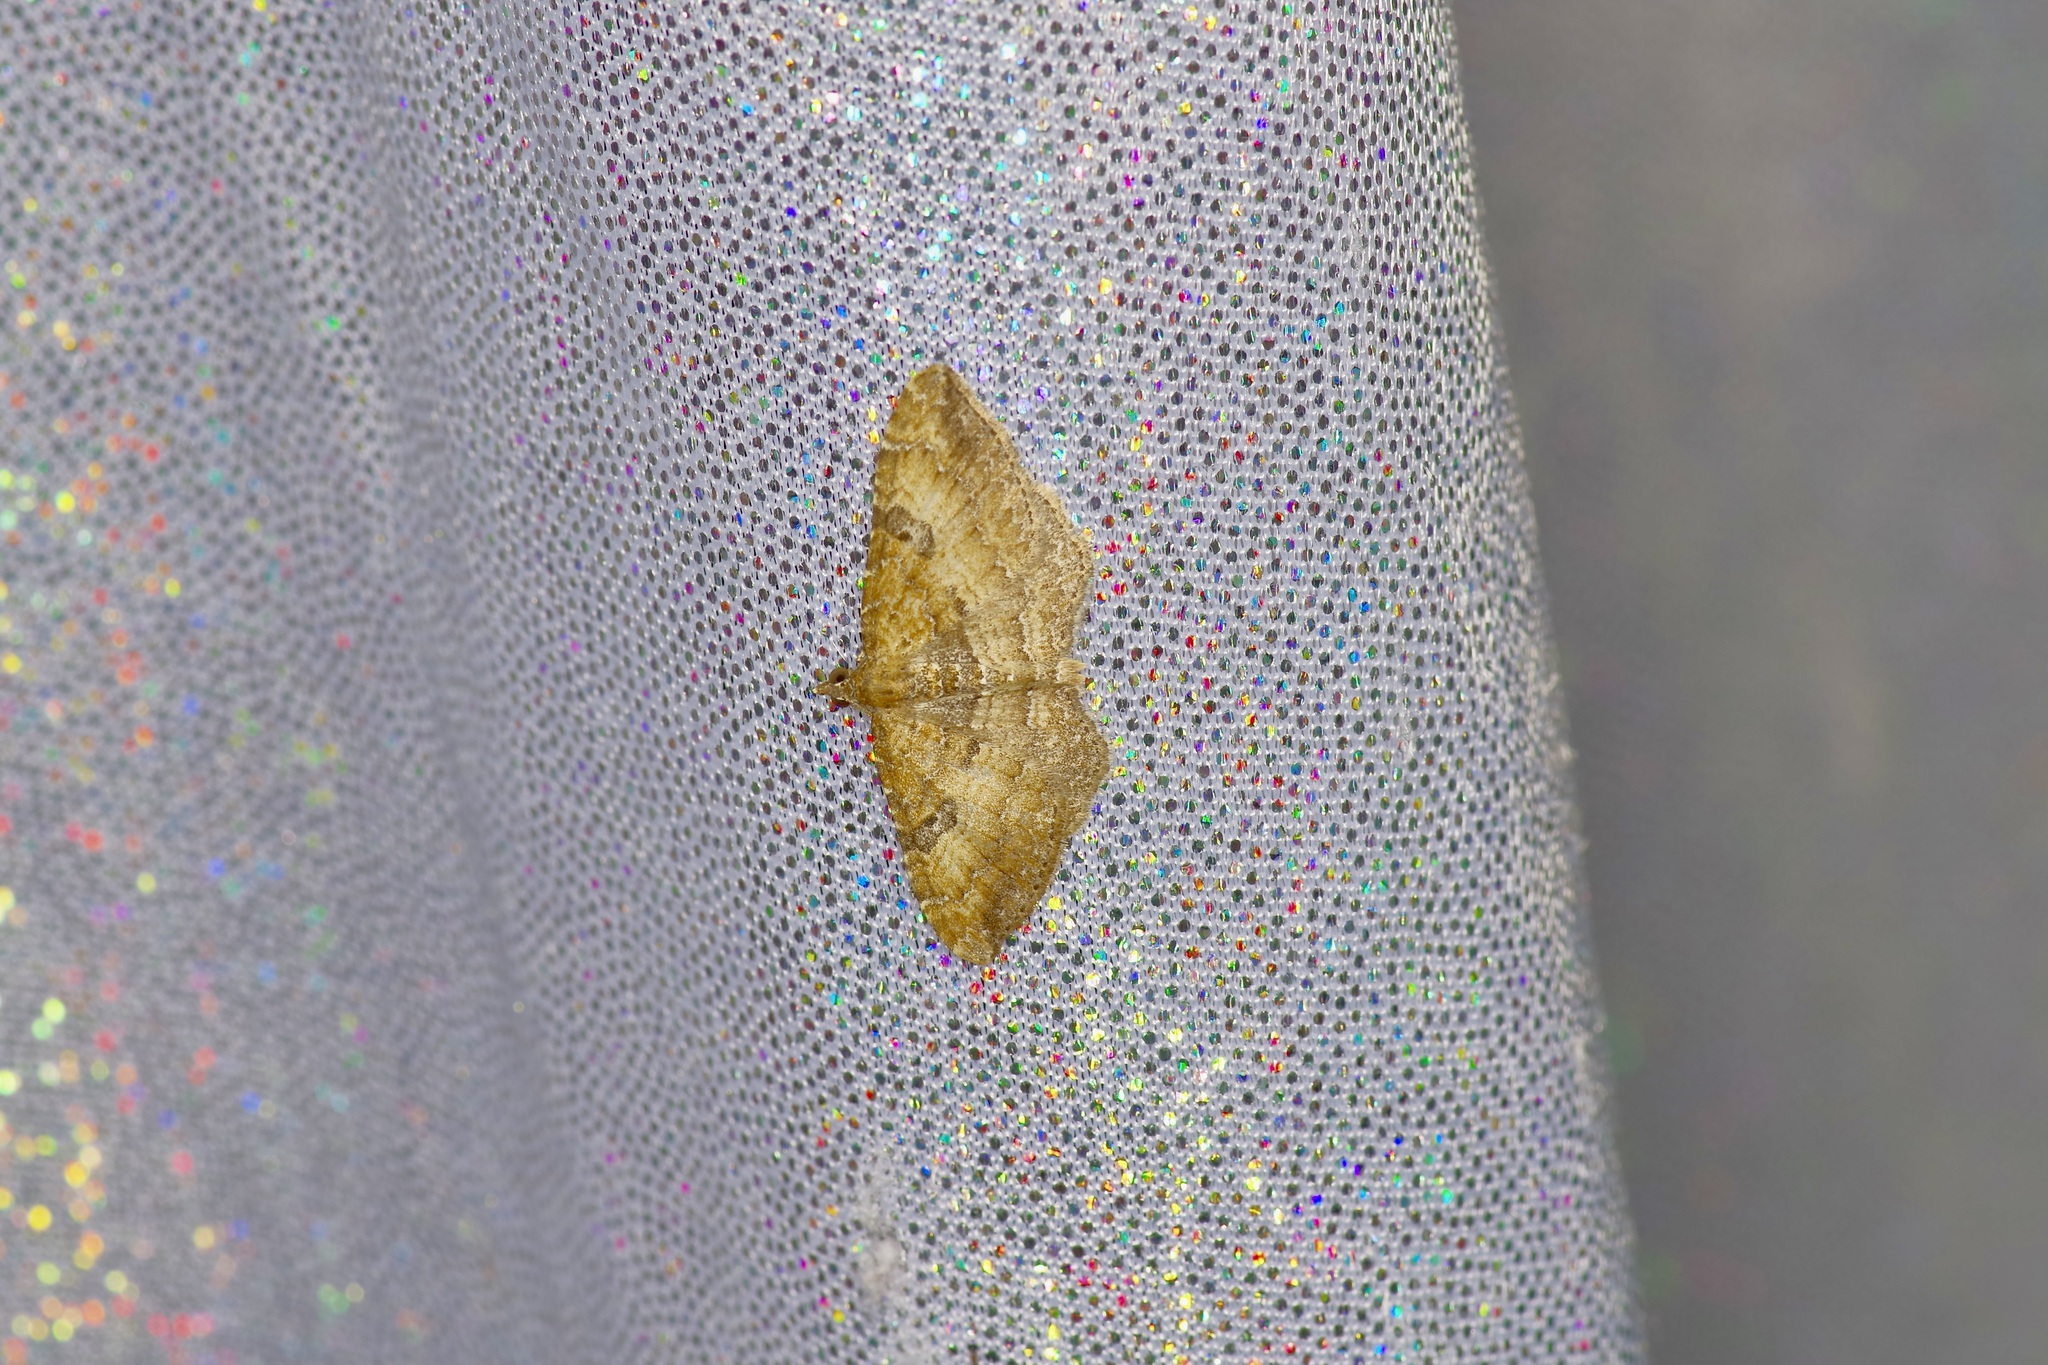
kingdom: Animalia
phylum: Arthropoda
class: Insecta
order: Lepidoptera
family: Geometridae
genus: Orthonama
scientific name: Orthonama obstipata
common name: The gem
